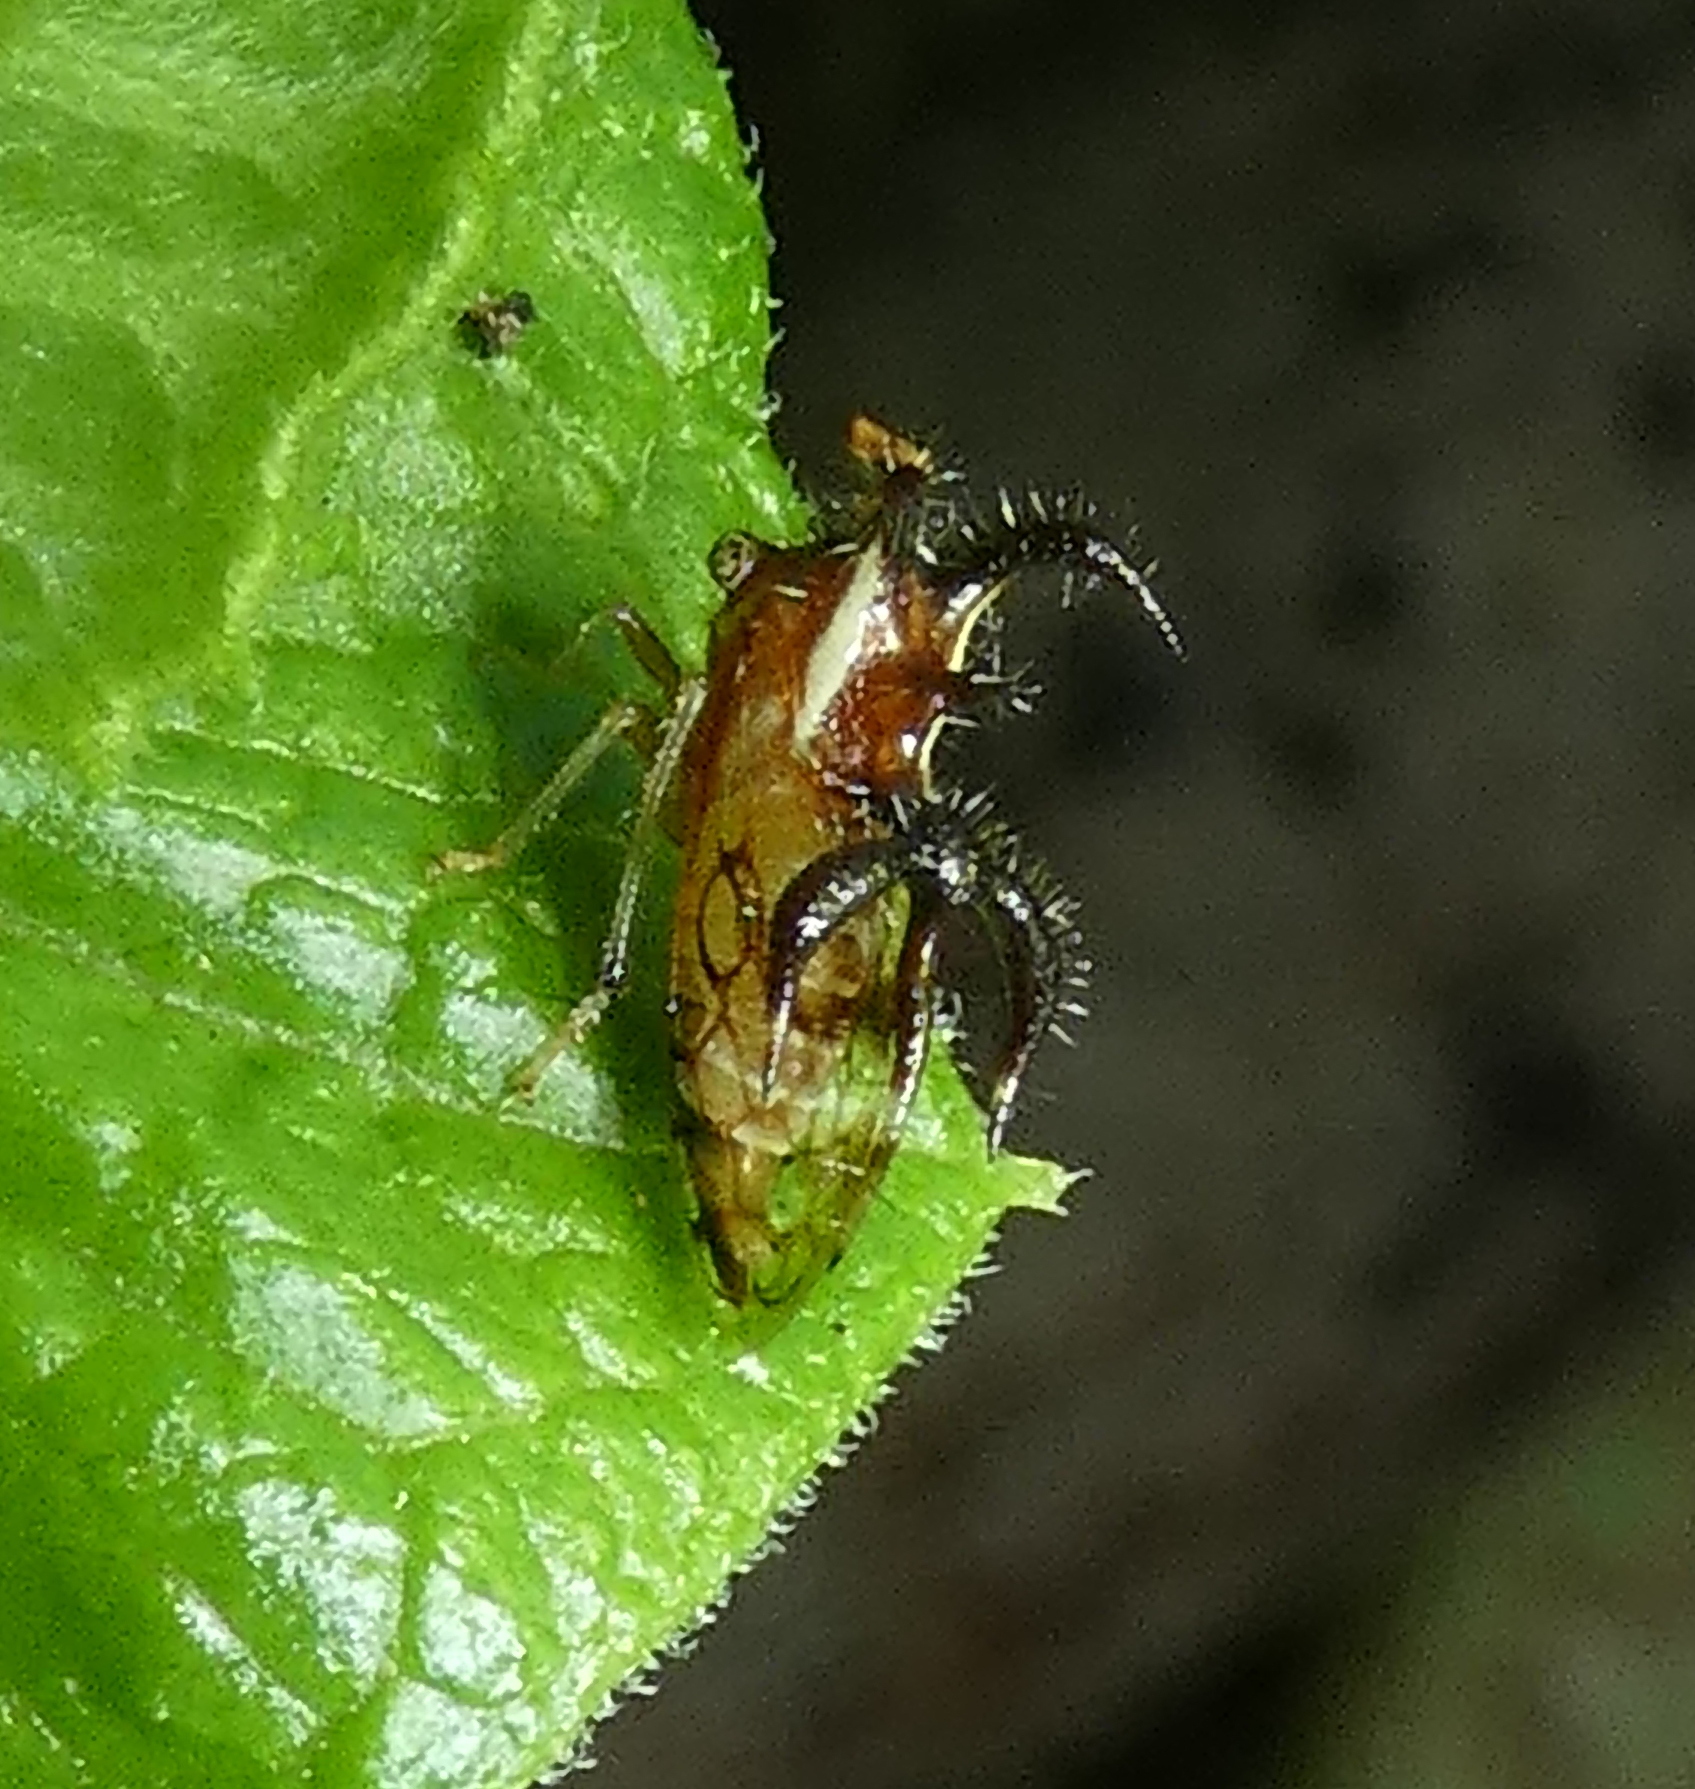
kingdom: Animalia
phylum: Arthropoda
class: Insecta
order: Hemiptera
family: Membracidae
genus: Cyphonia
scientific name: Cyphonia nordestina
